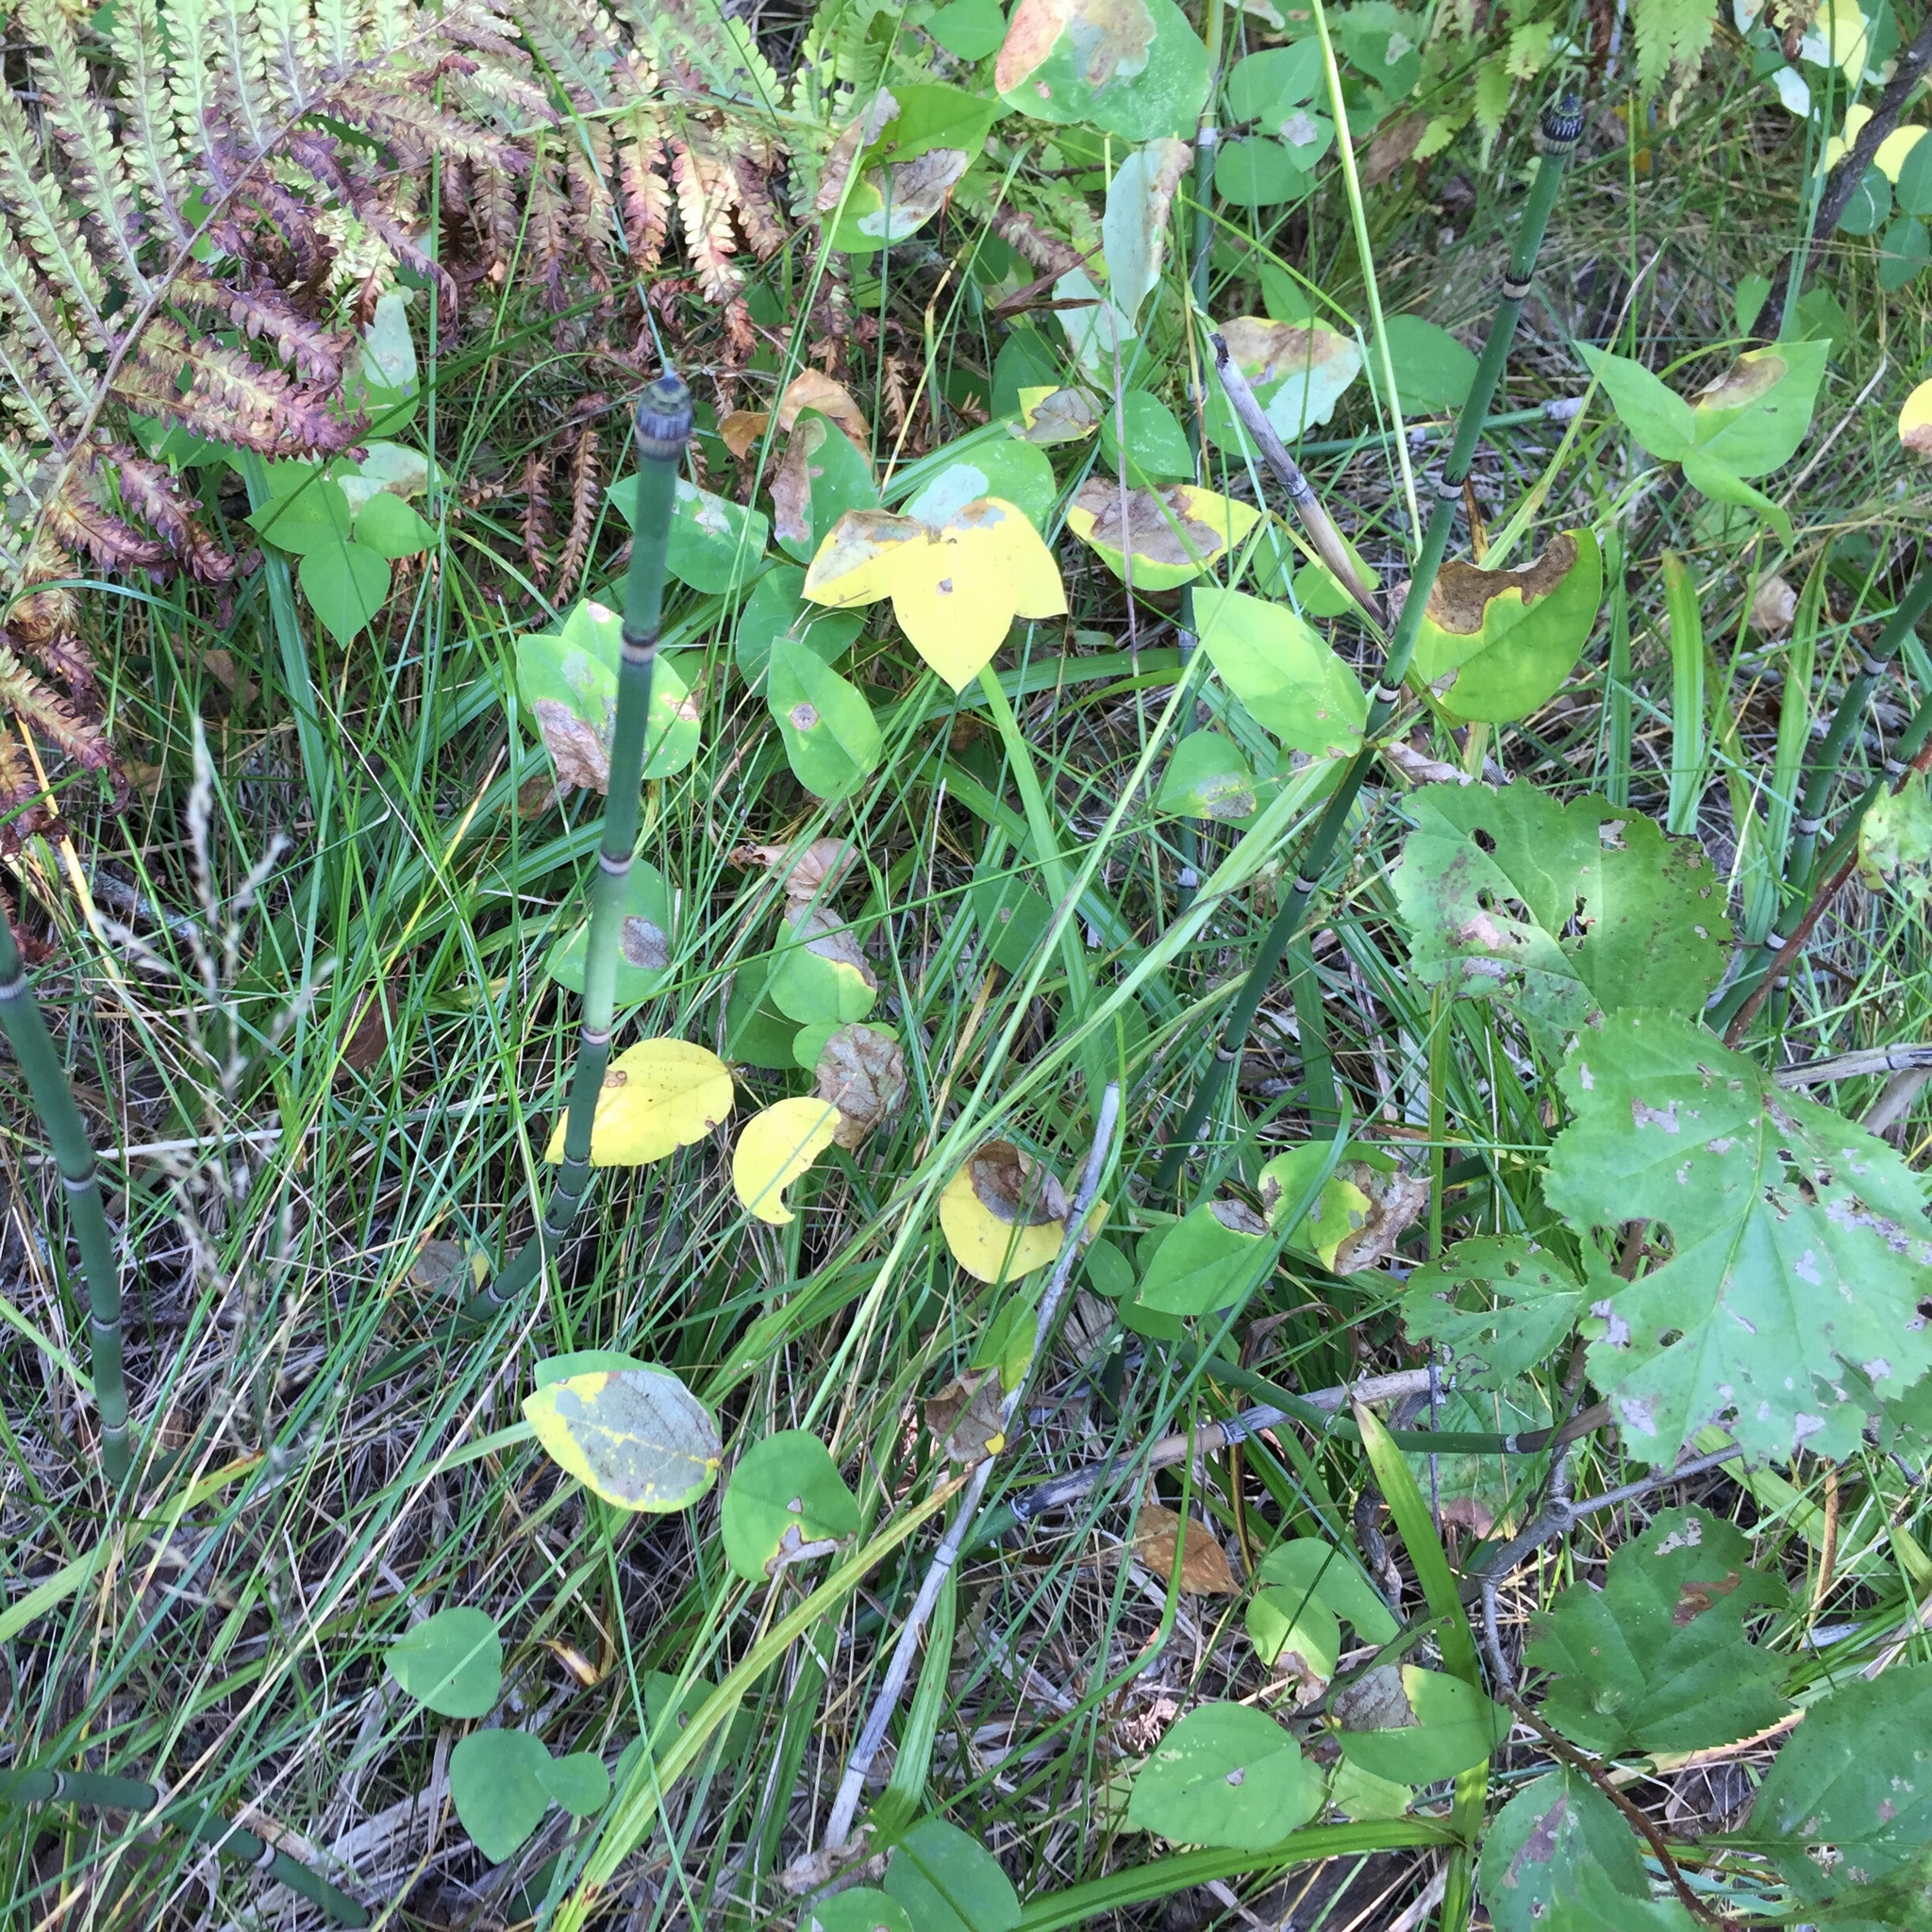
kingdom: Plantae
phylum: Tracheophyta
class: Magnoliopsida
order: Fabales
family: Fabaceae
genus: Amphicarpaea
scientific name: Amphicarpaea bracteata
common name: American hog peanut
